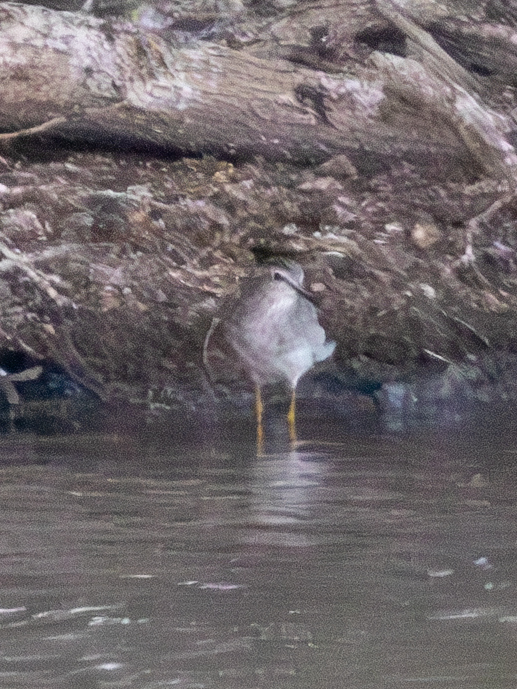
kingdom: Animalia
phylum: Chordata
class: Aves
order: Charadriiformes
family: Scolopacidae
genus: Tringa
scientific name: Tringa glareola
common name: Wood sandpiper
